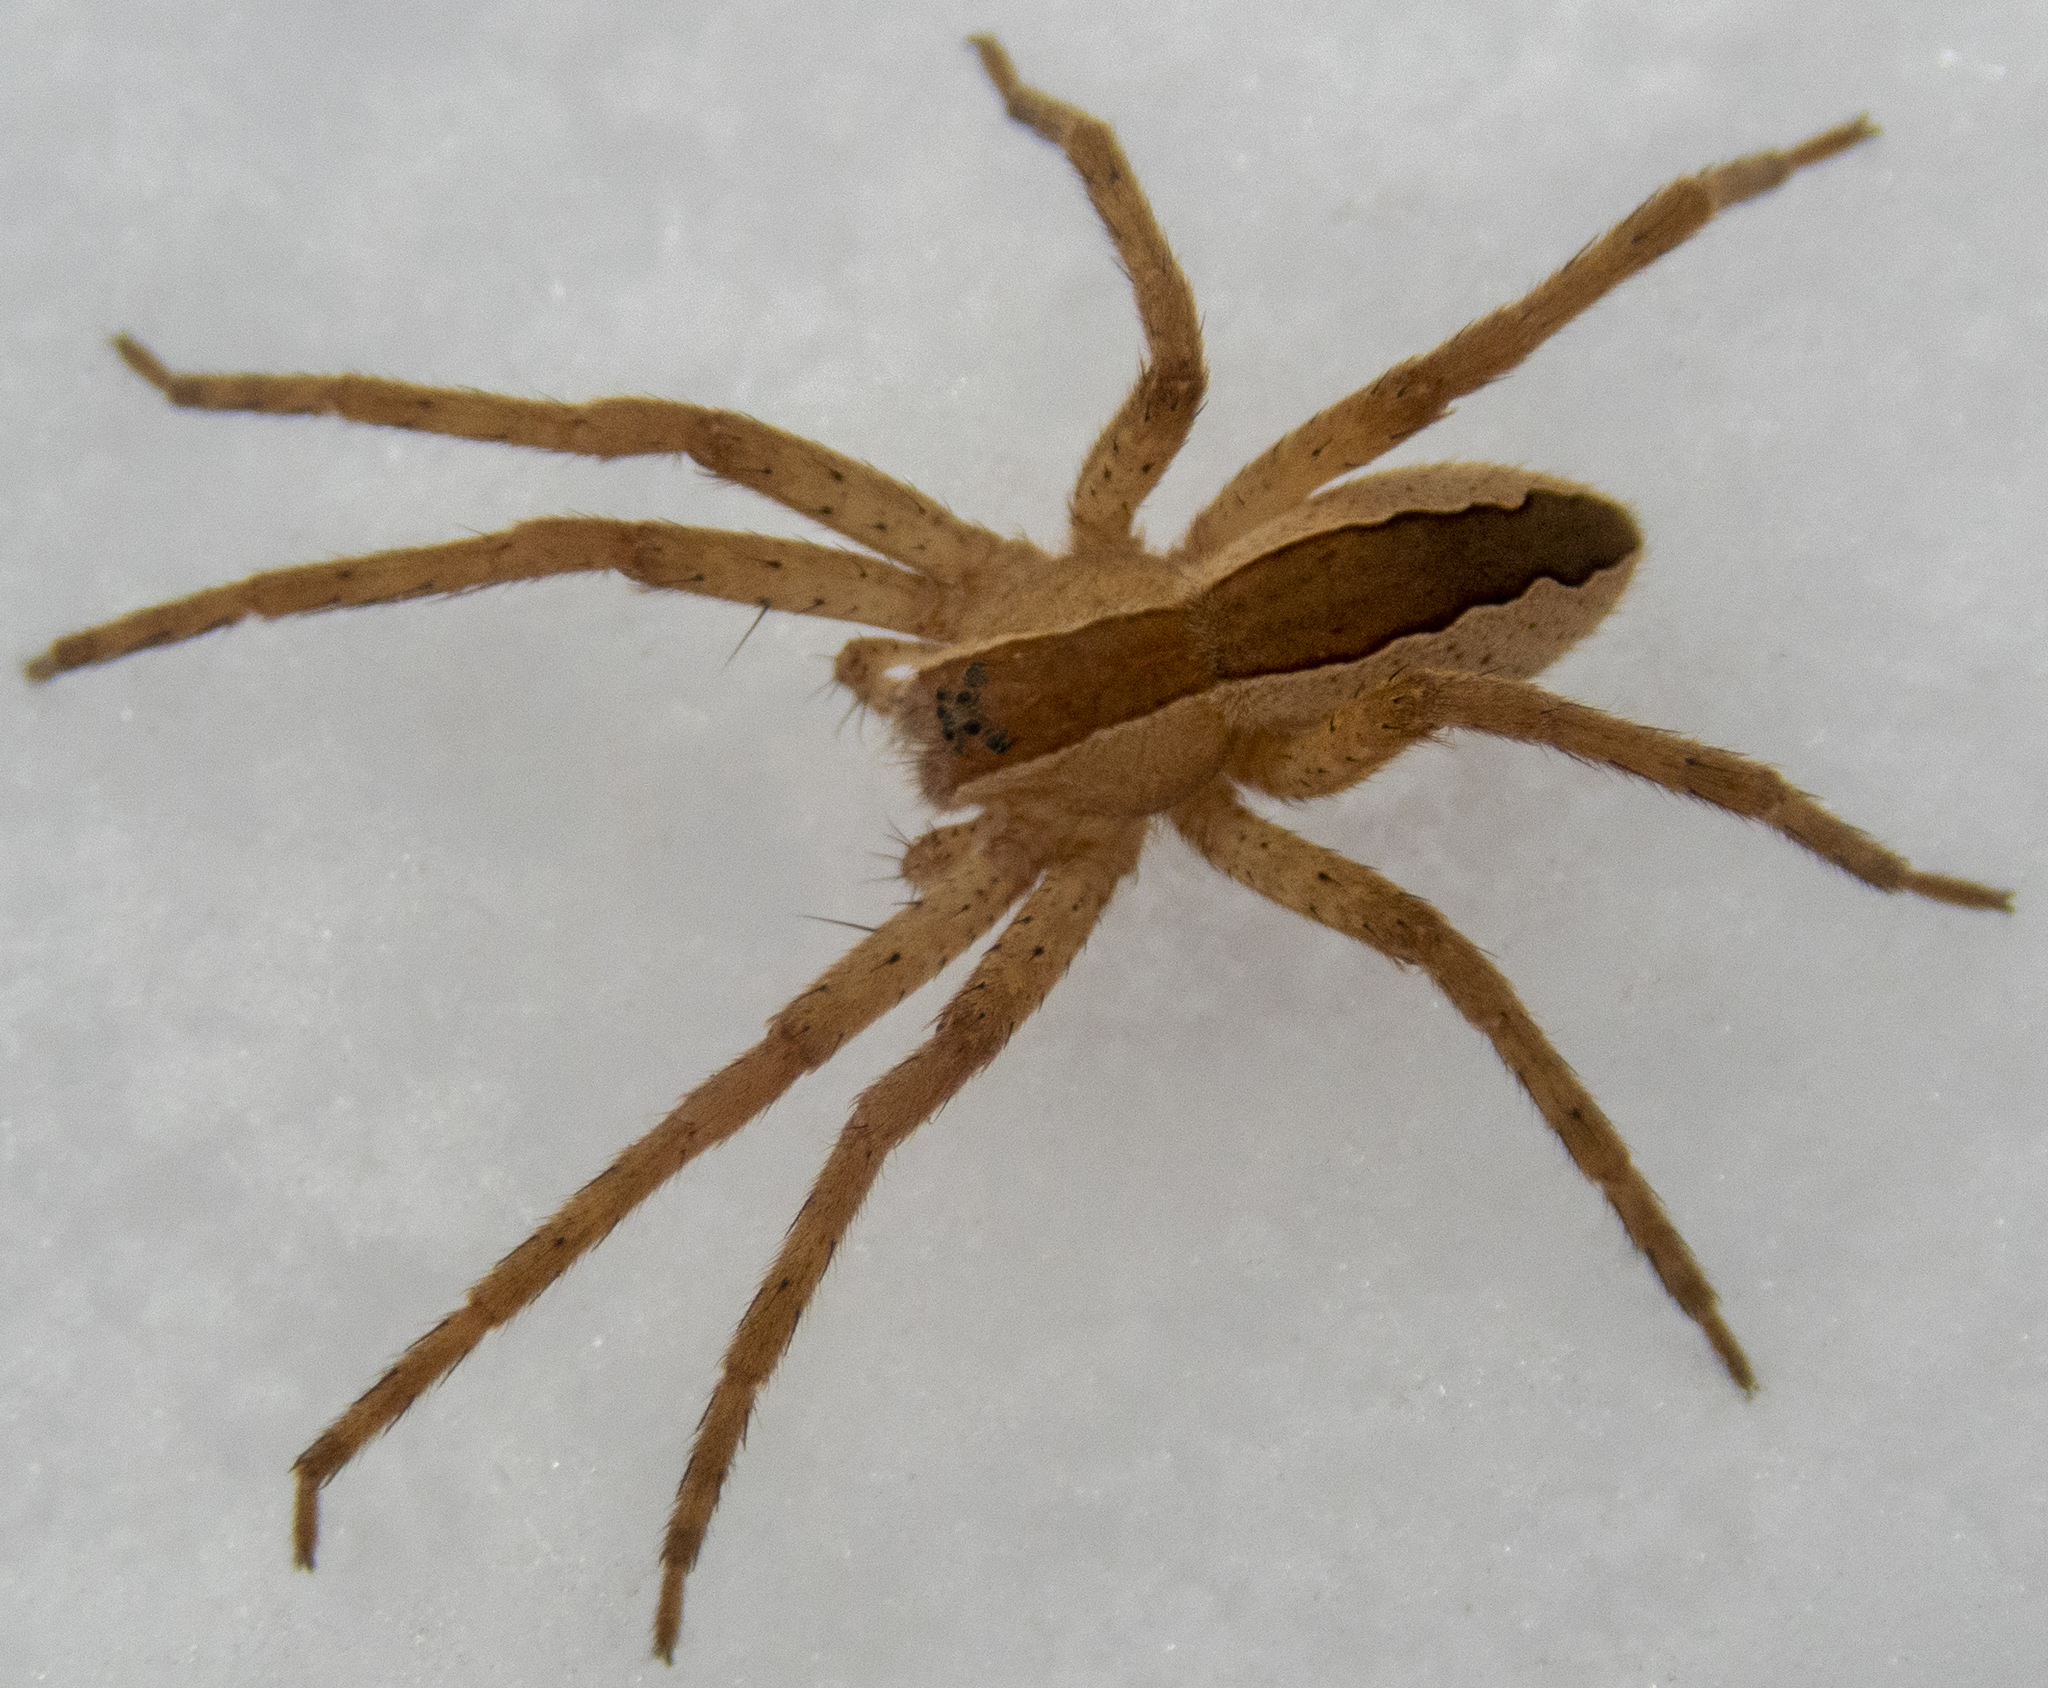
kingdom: Animalia
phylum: Arthropoda
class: Arachnida
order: Araneae
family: Pisauridae
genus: Pisaurina
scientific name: Pisaurina mira
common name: American nursery web spider
